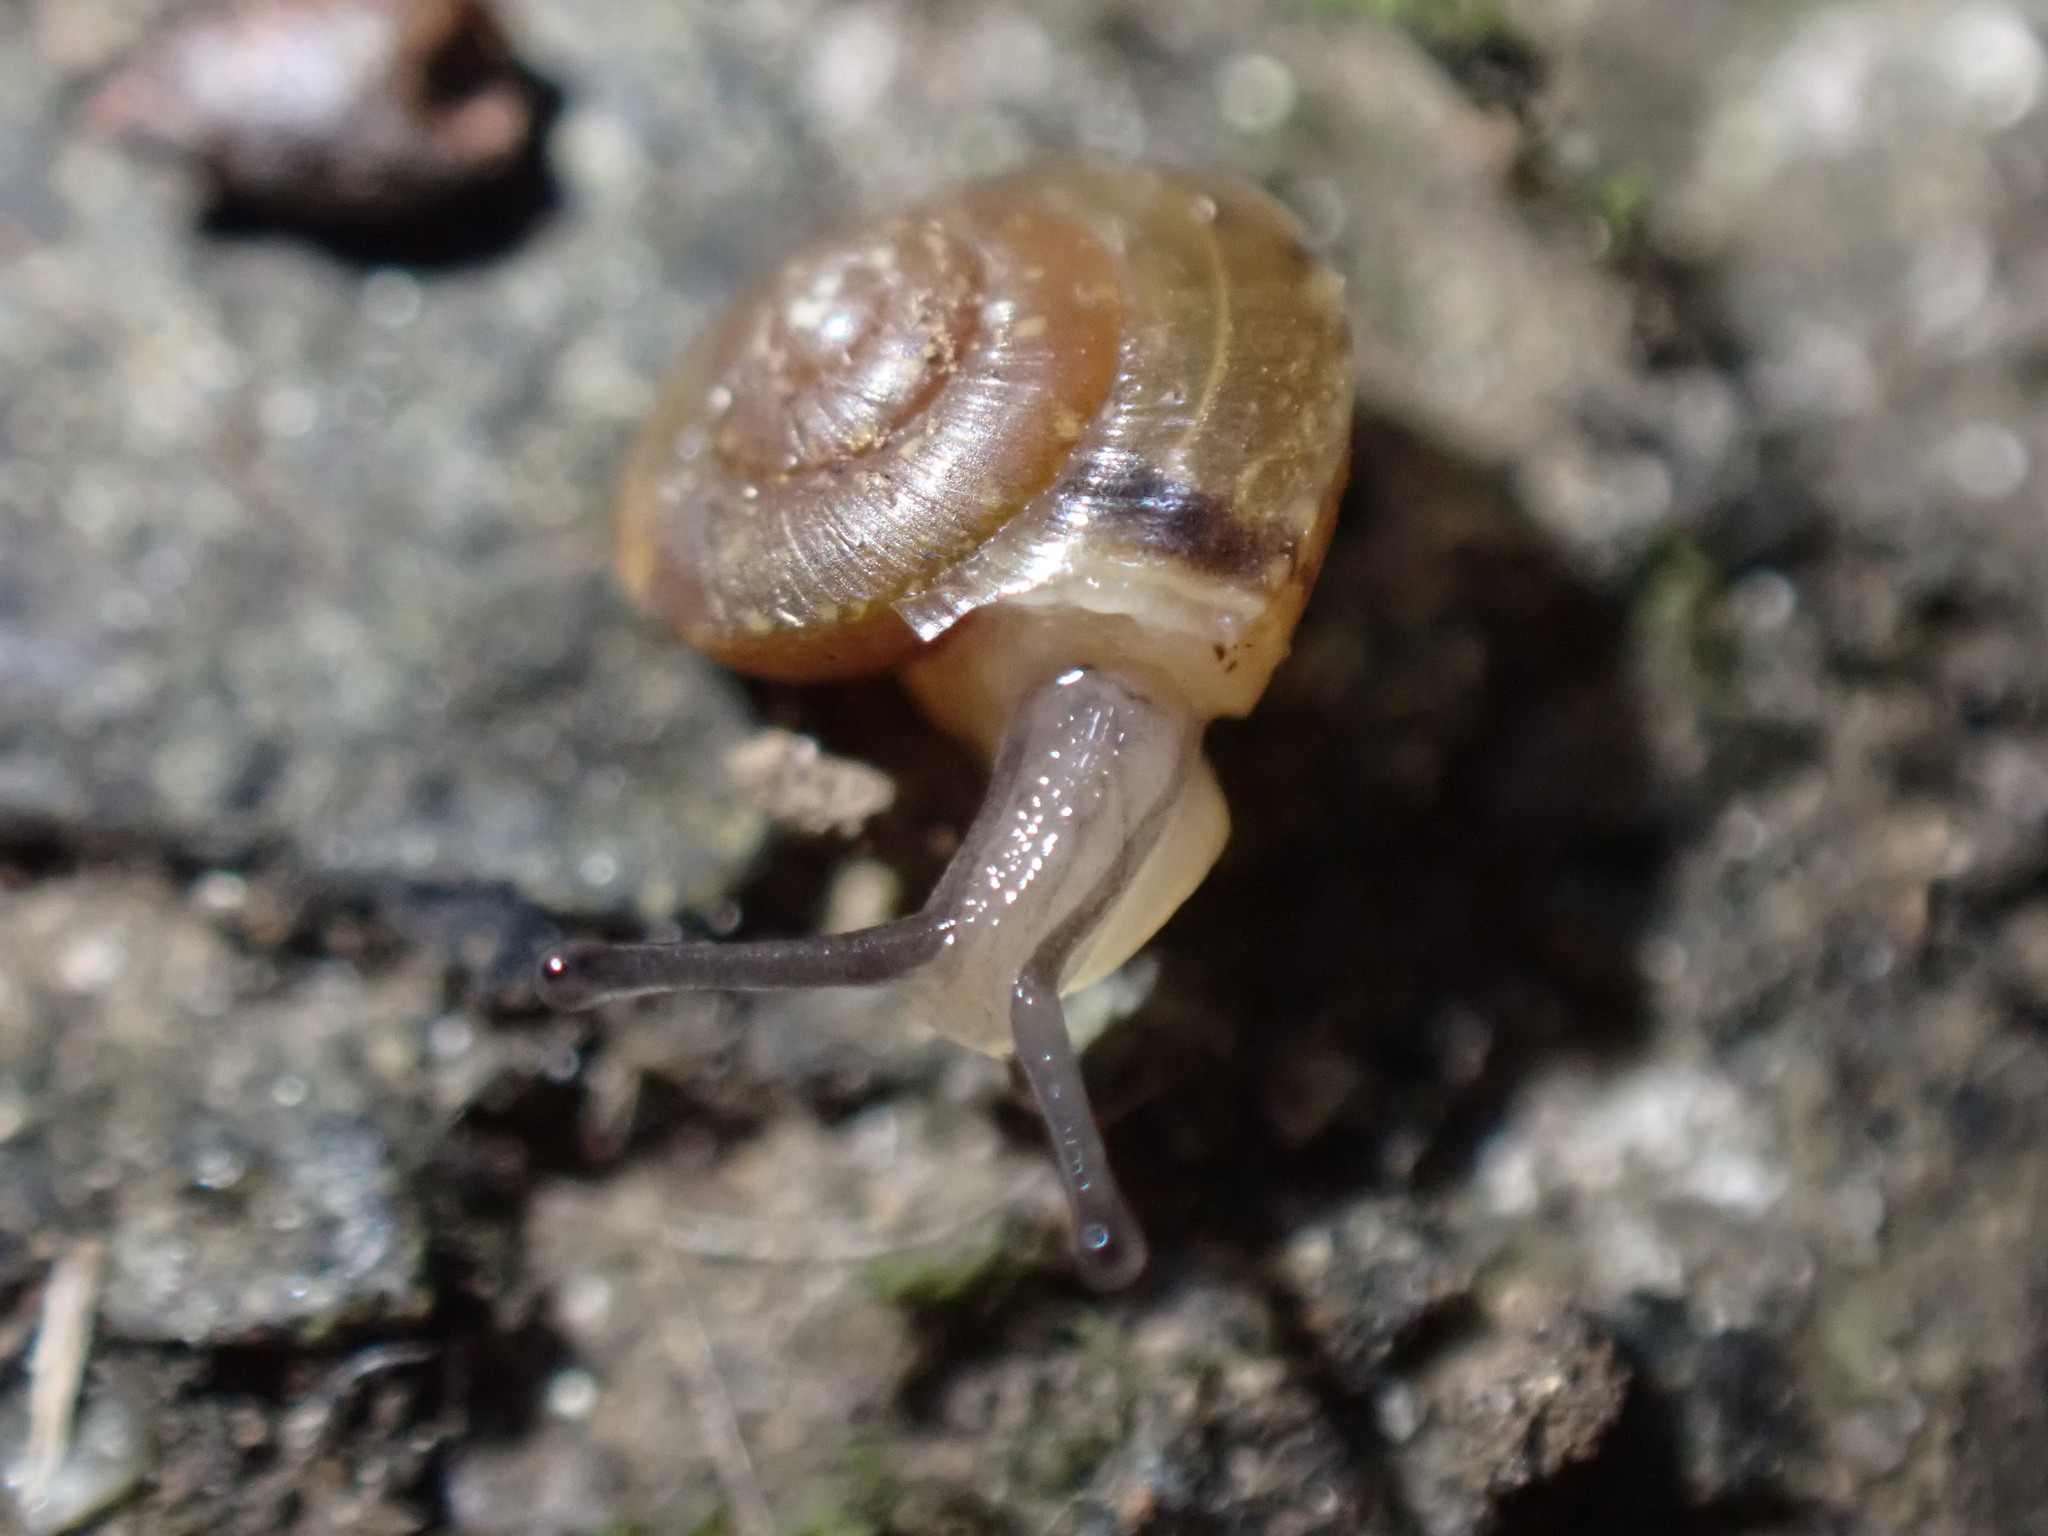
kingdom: Animalia
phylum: Mollusca
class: Gastropoda
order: Stylommatophora
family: Hygromiidae
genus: Hygromia
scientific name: Hygromia cinctella
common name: Girdled snail
